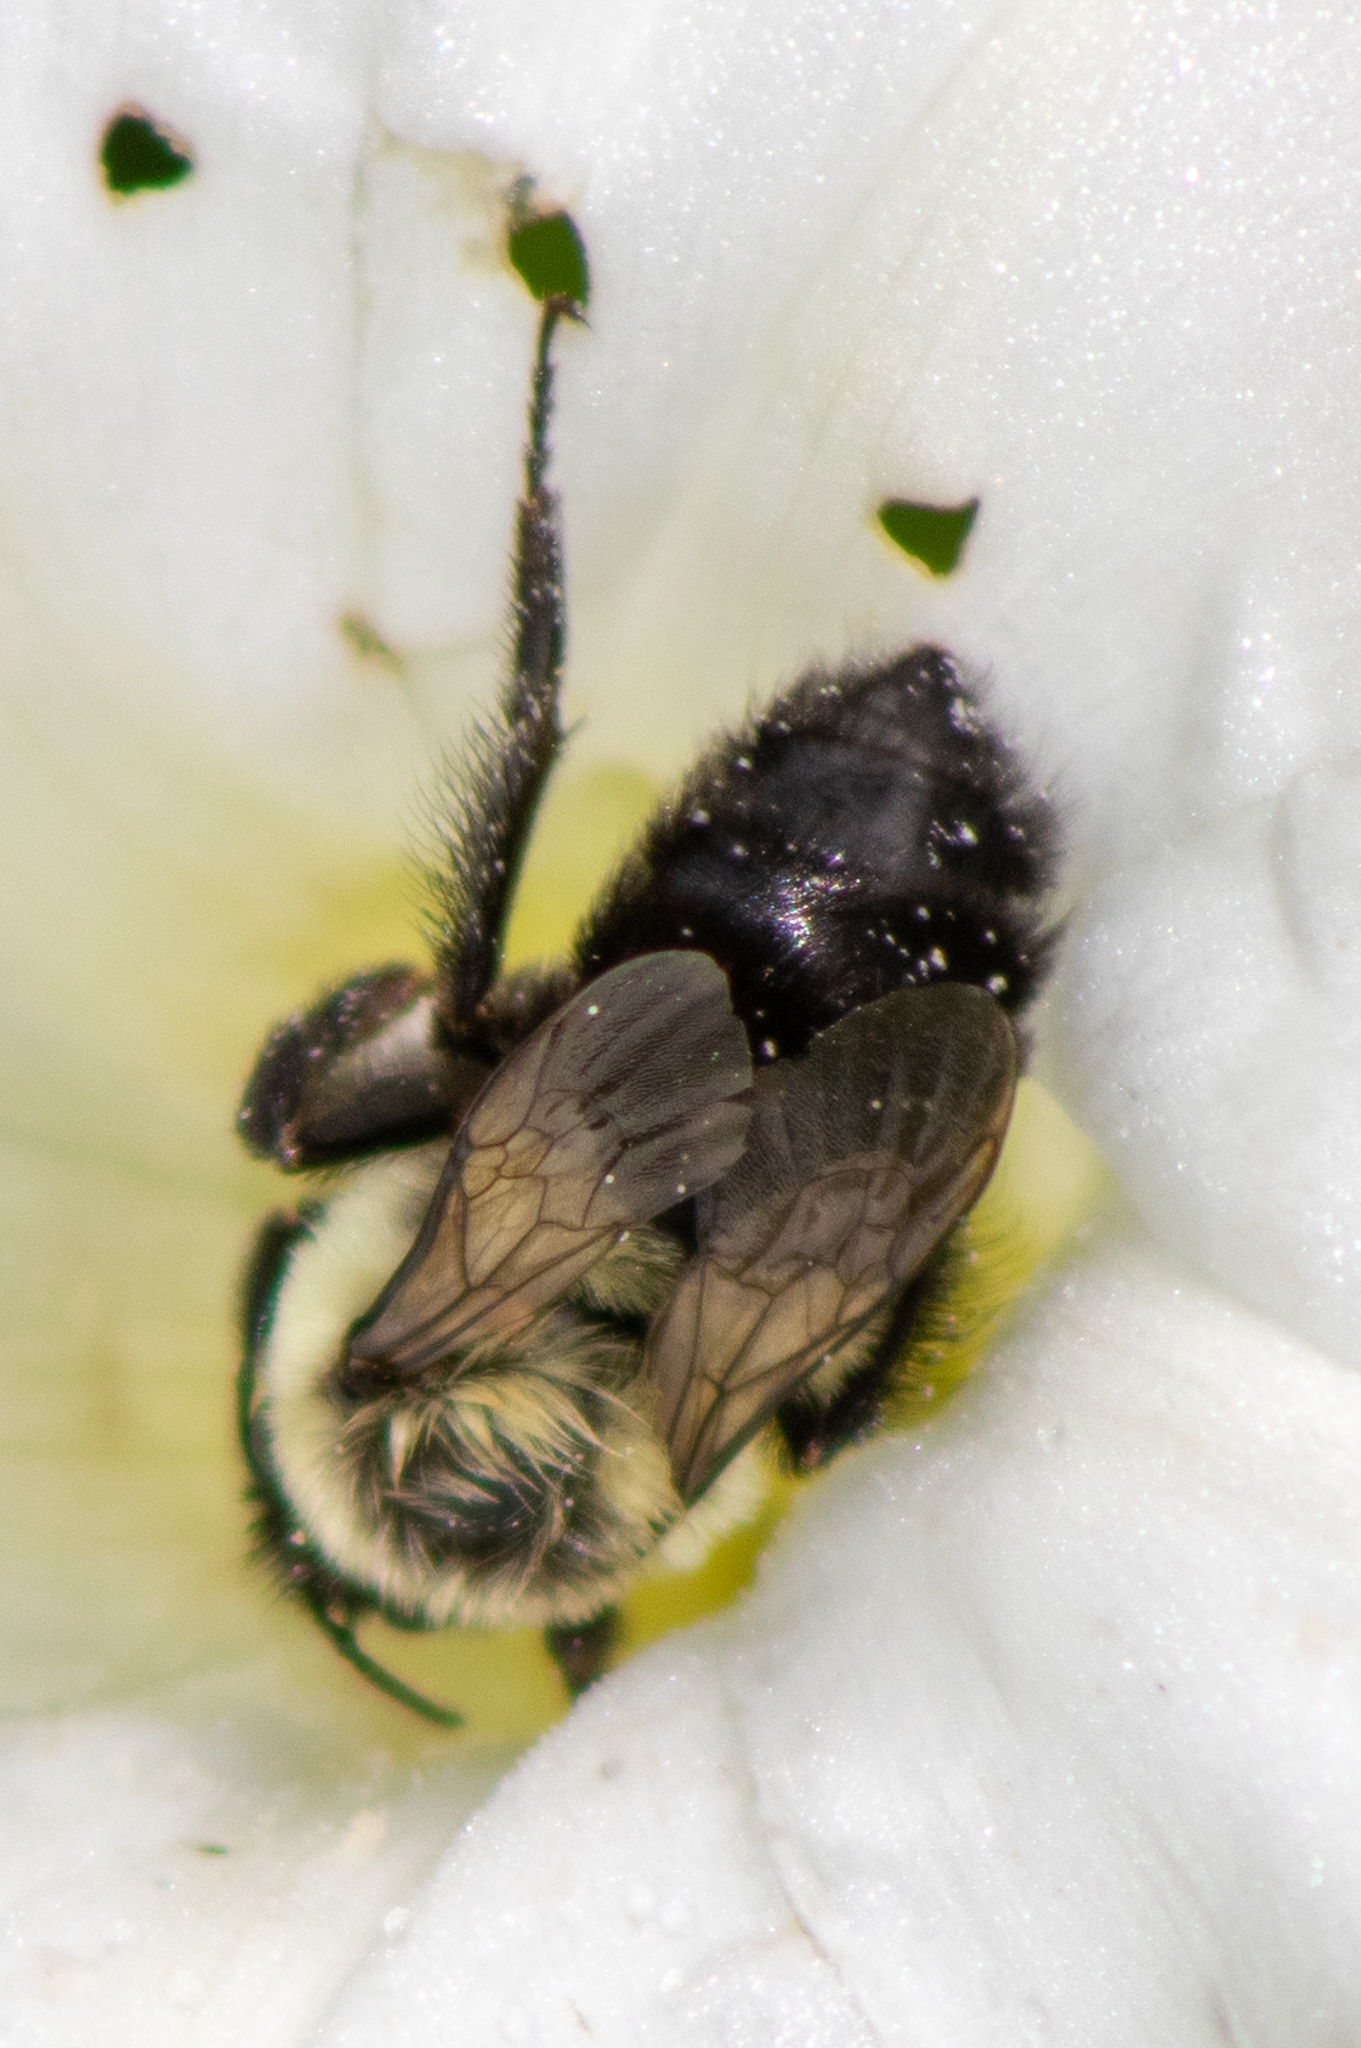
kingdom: Animalia
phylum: Arthropoda
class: Insecta
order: Hymenoptera
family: Apidae
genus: Bombus
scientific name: Bombus impatiens
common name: Common eastern bumble bee
